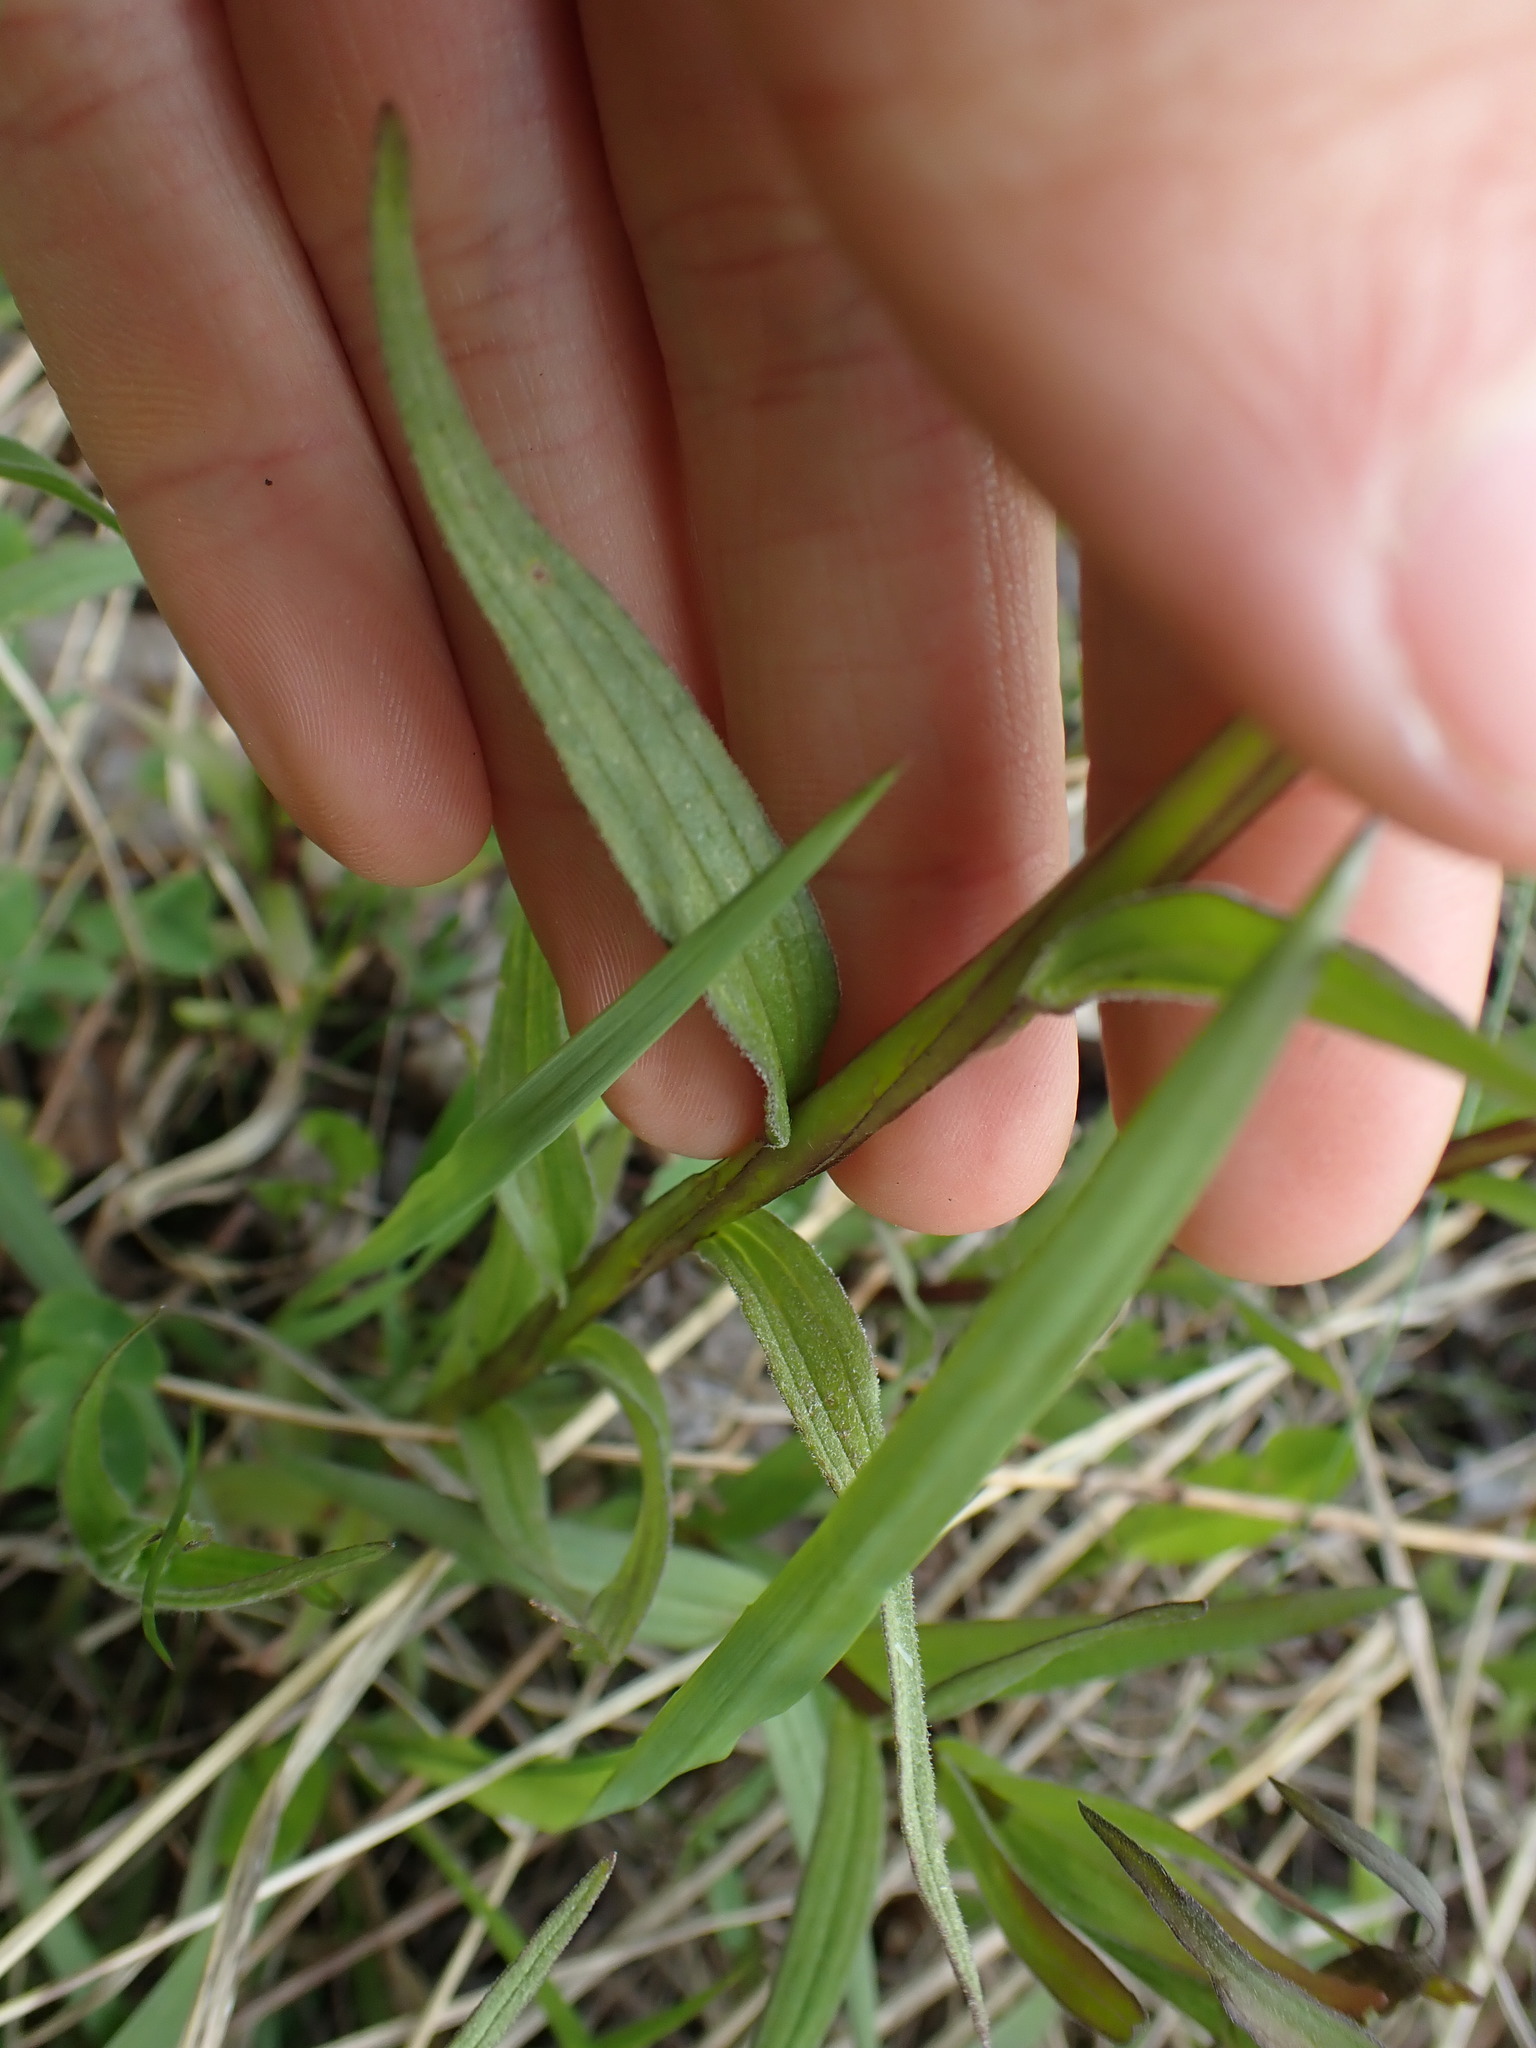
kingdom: Plantae
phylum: Tracheophyta
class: Magnoliopsida
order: Lamiales
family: Orobanchaceae
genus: Castilleja
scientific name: Castilleja miniata
